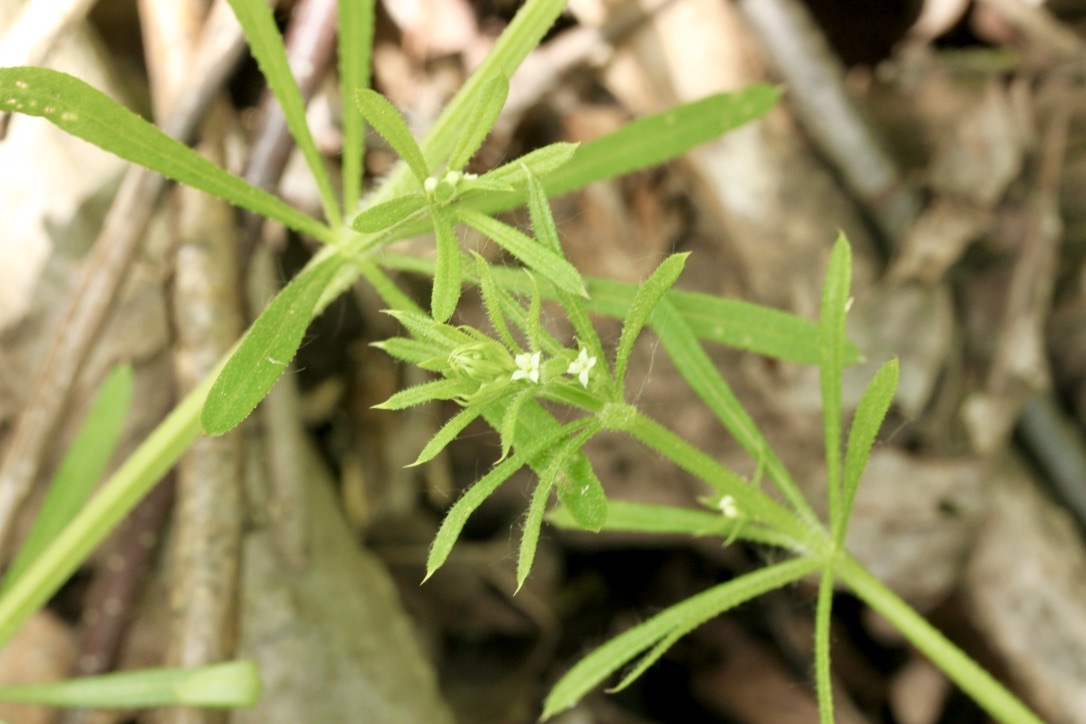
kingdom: Plantae
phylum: Tracheophyta
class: Magnoliopsida
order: Gentianales
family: Rubiaceae
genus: Galium
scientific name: Galium aparine
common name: Cleavers
